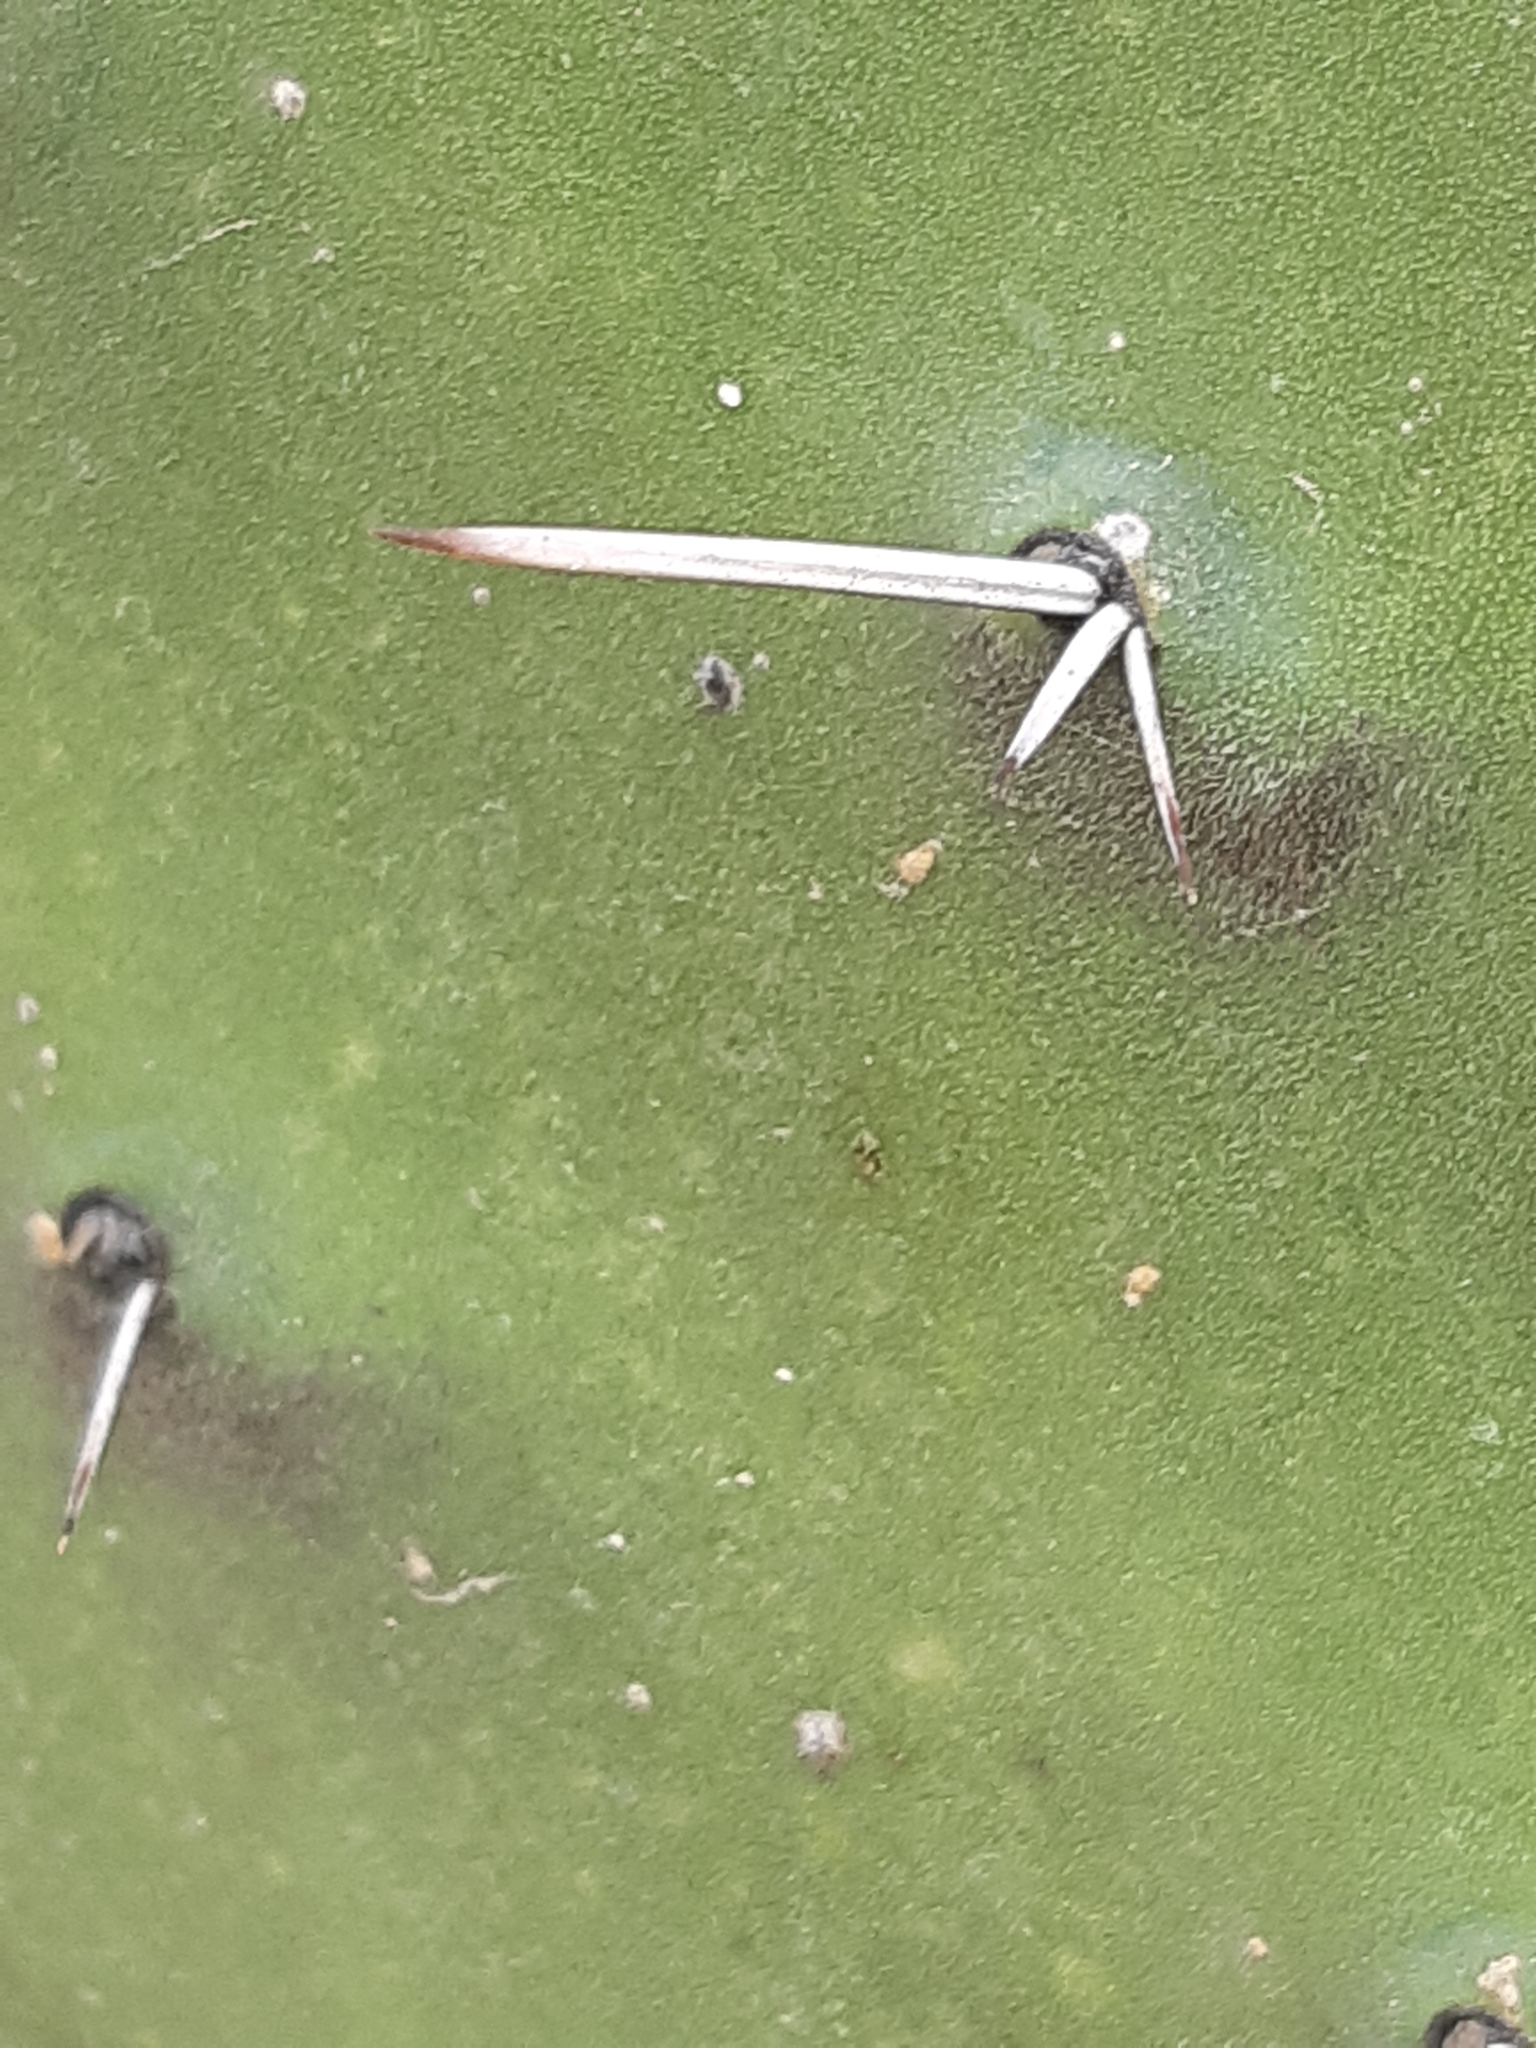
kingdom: Plantae
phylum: Tracheophyta
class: Magnoliopsida
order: Caryophyllales
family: Cactaceae
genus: Opuntia
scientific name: Opuntia tomentosa
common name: Woollyjoint pricklypear
